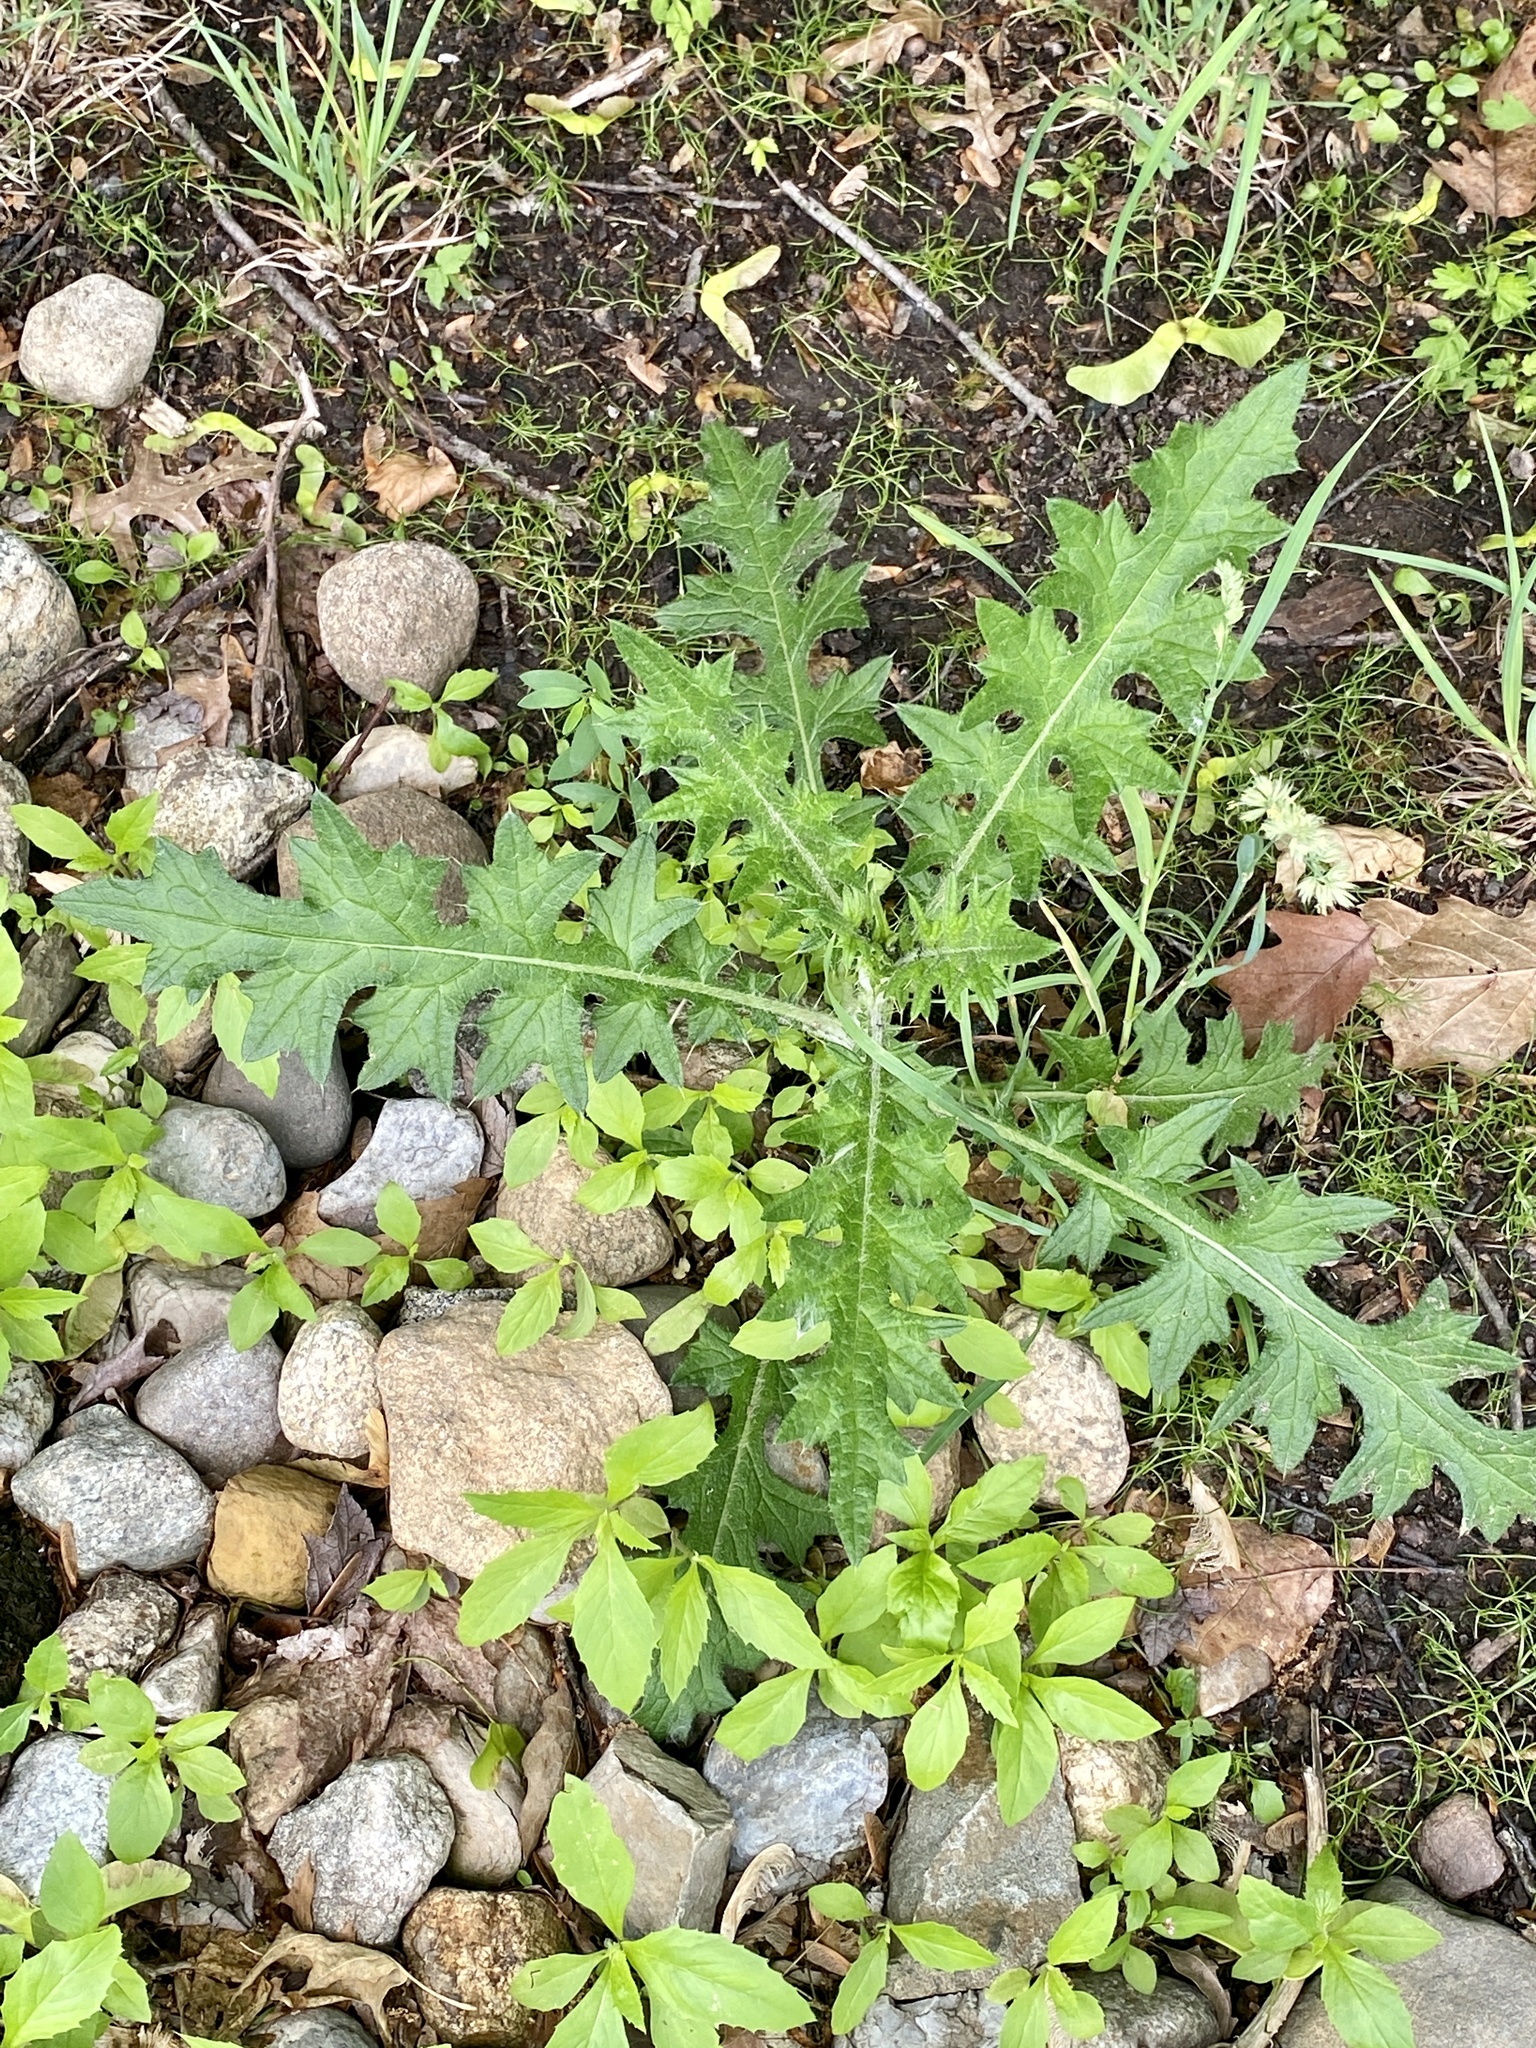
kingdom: Plantae
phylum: Tracheophyta
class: Magnoliopsida
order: Asterales
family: Asteraceae
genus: Cirsium
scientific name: Cirsium vulgare
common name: Bull thistle
